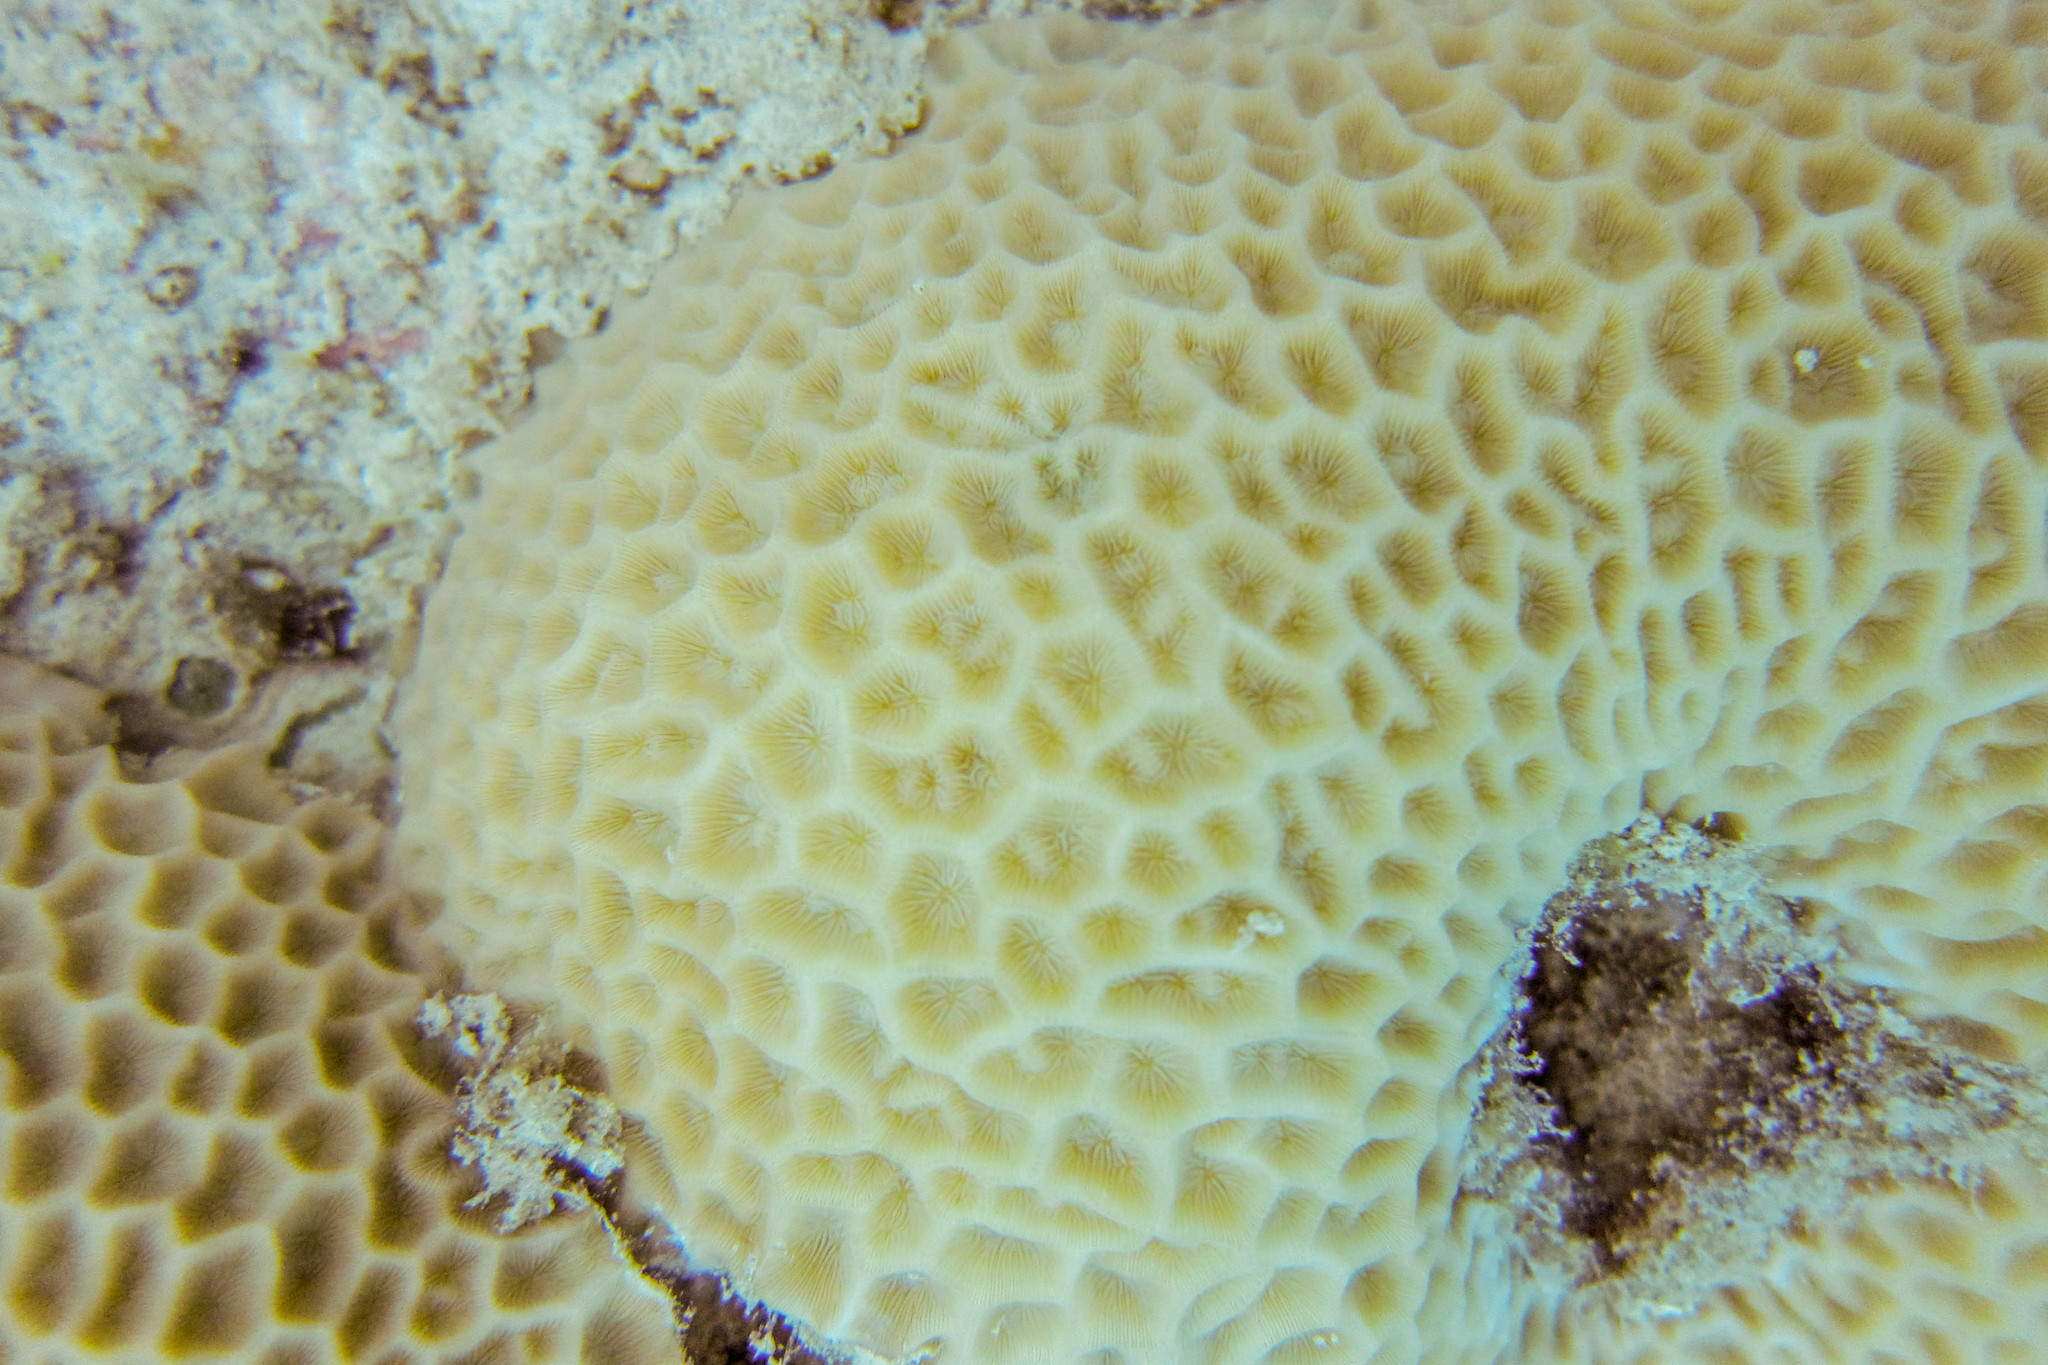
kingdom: Animalia
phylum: Cnidaria
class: Anthozoa
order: Scleractinia
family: Agariciidae
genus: Pavona
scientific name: Pavona venosa
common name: Leaf coral
